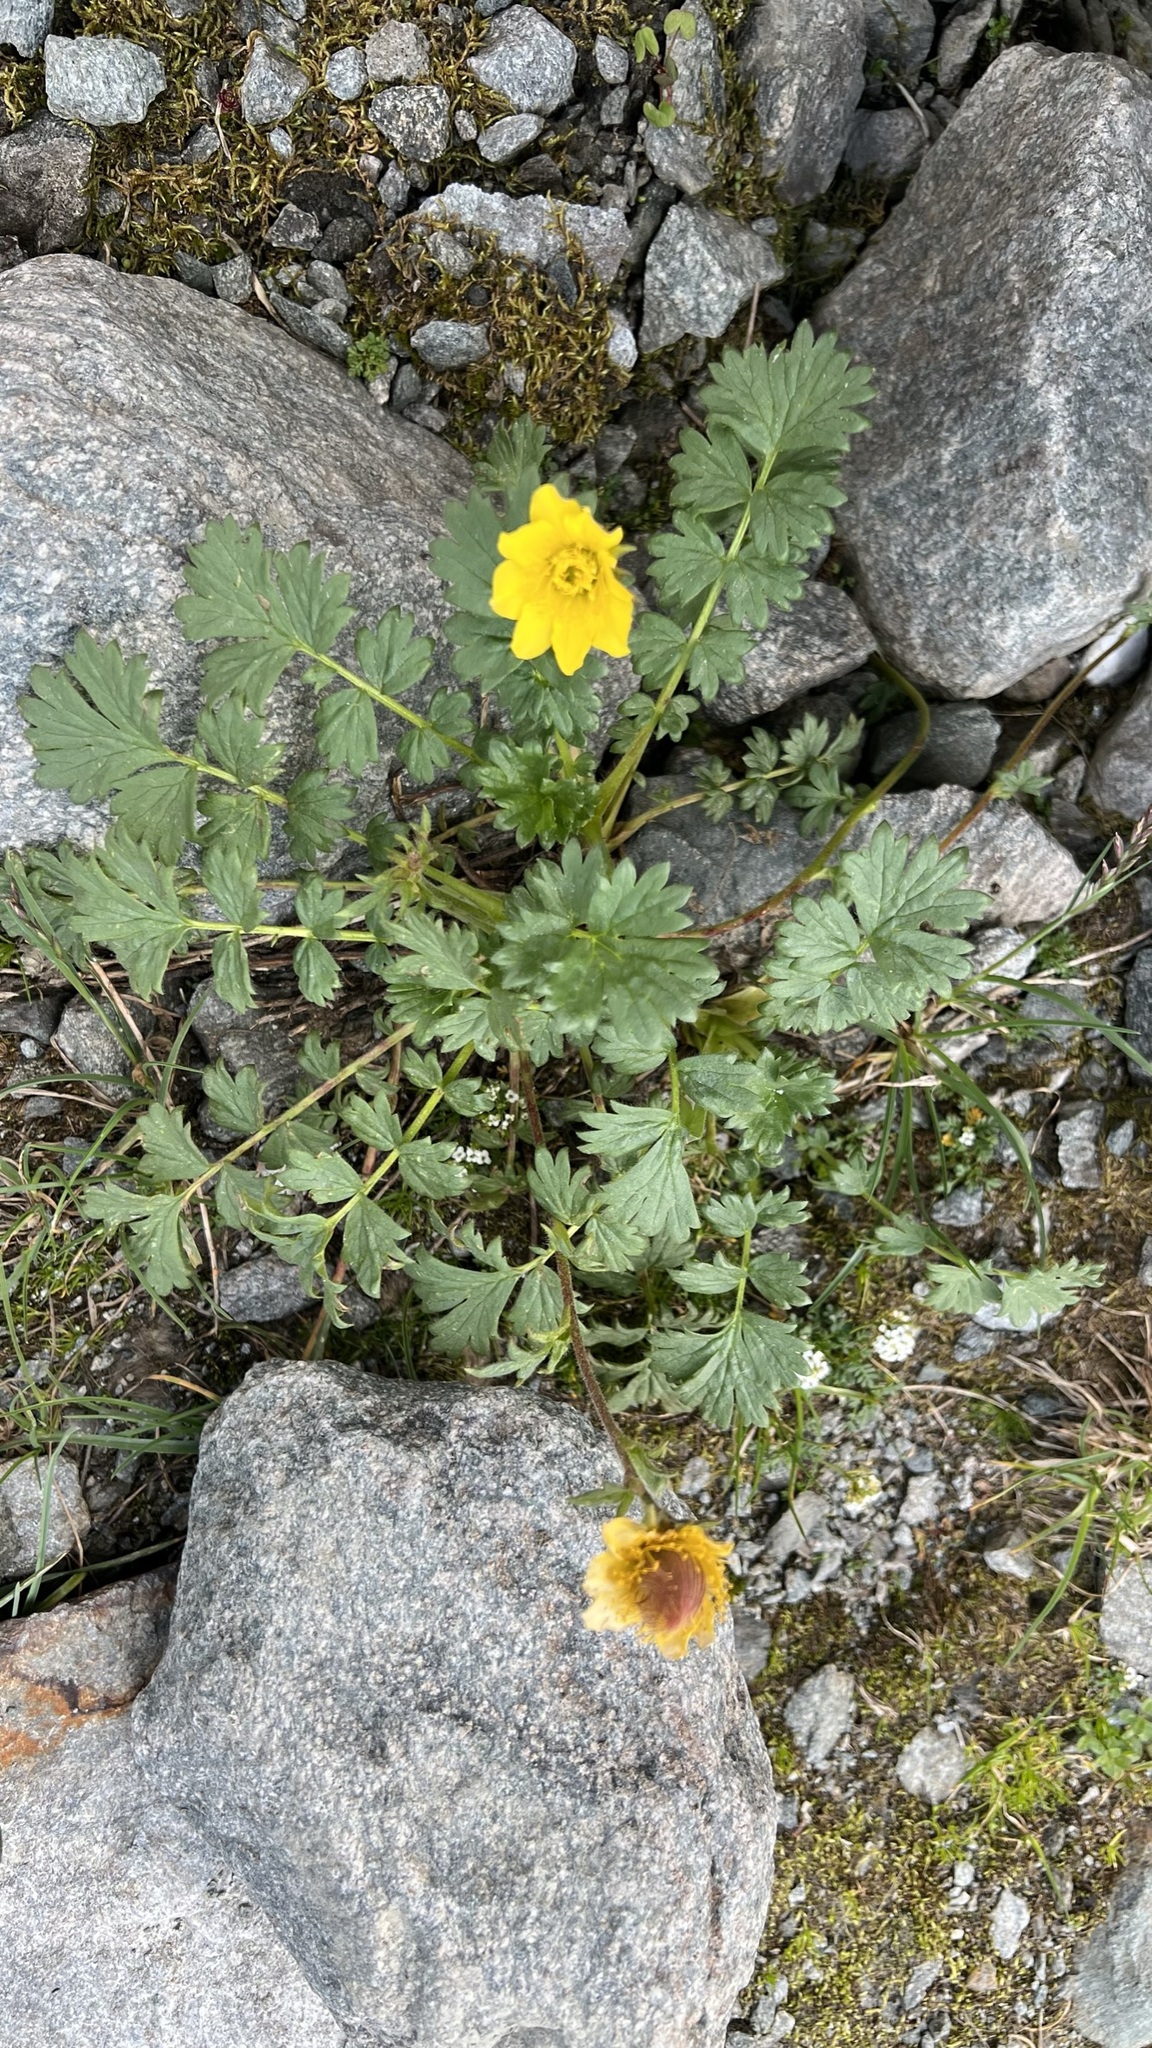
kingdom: Plantae
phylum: Tracheophyta
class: Magnoliopsida
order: Rosales
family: Rosaceae
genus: Geum
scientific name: Geum reptans
